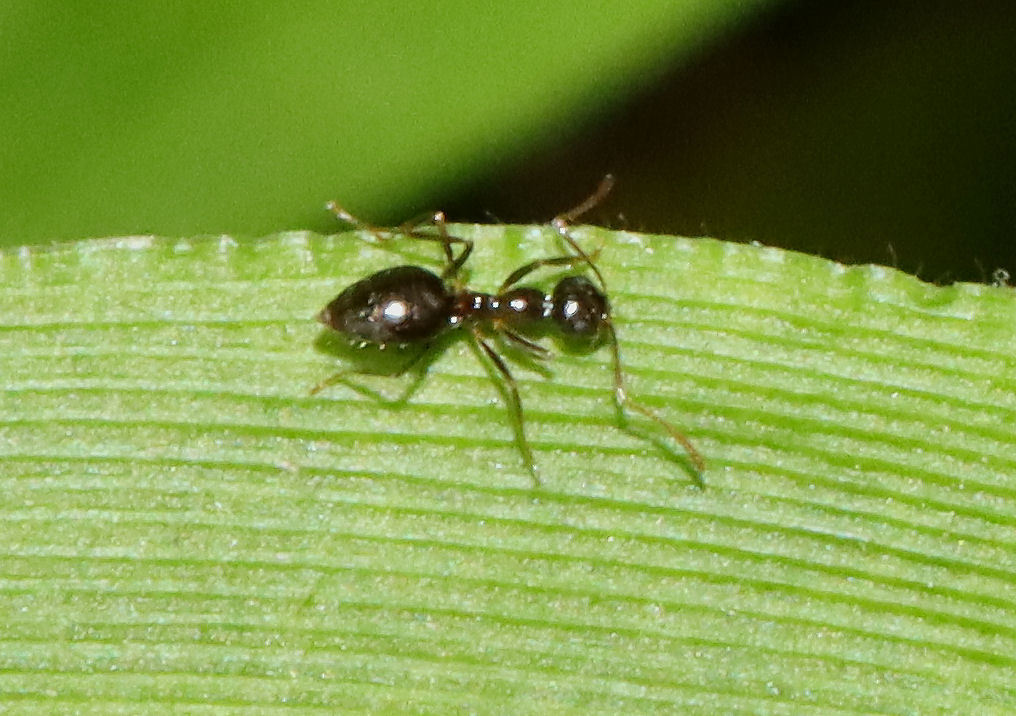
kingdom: Animalia
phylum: Arthropoda
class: Insecta
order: Hymenoptera
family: Formicidae
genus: Prenolepis
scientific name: Prenolepis imparis
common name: Small honey ant
